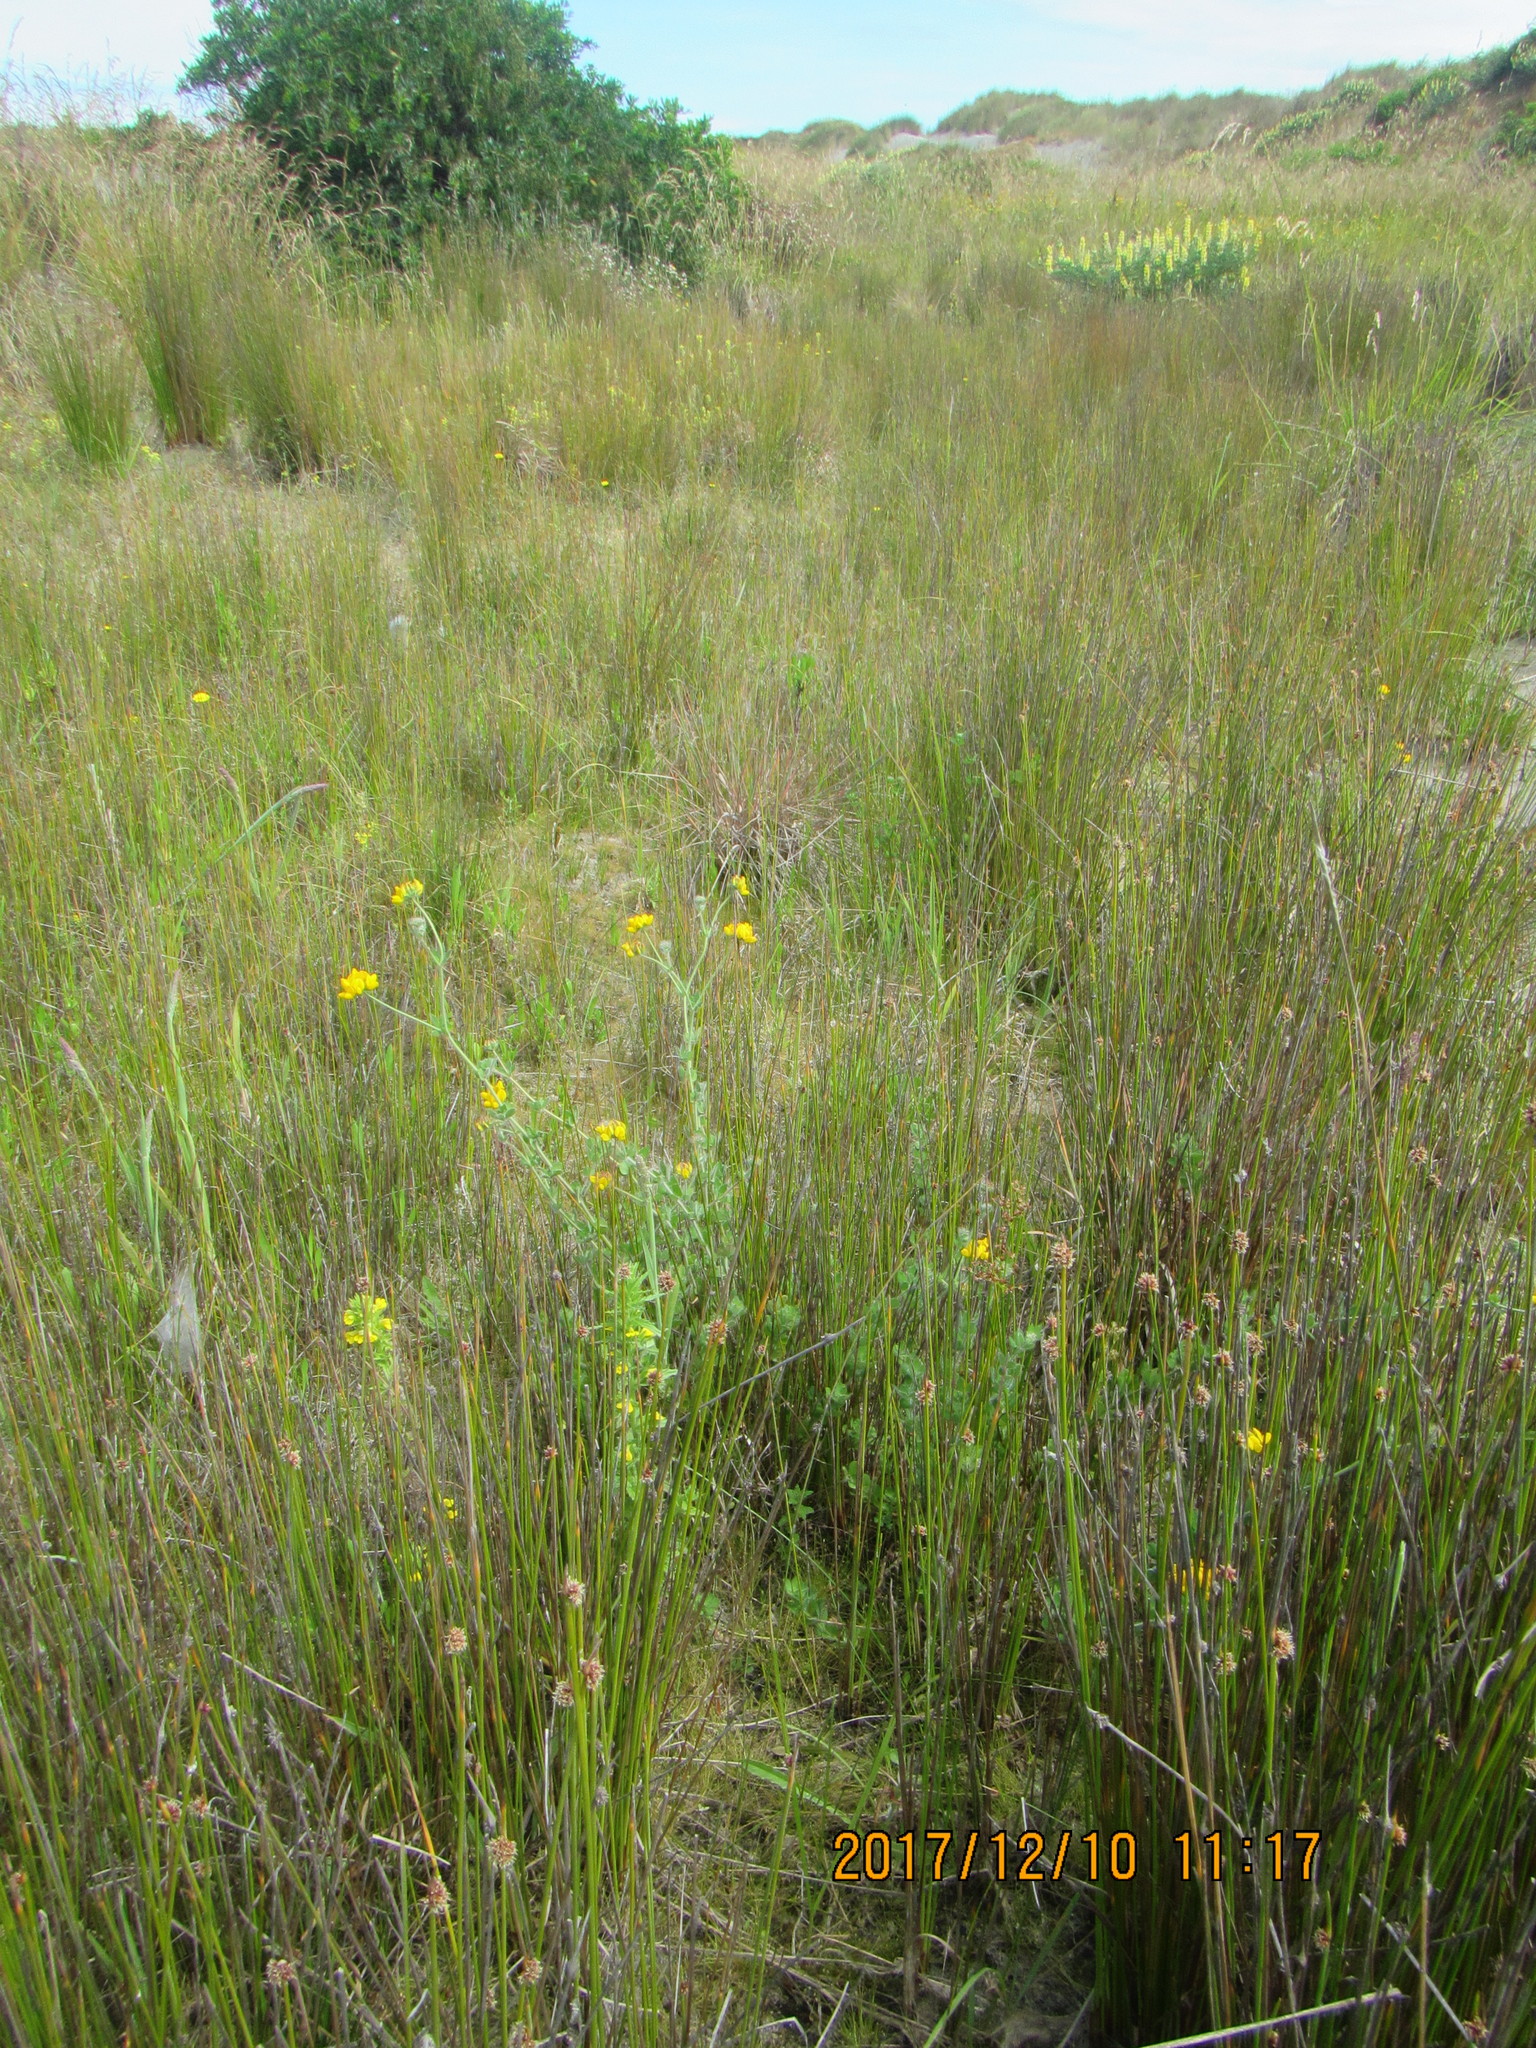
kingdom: Plantae
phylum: Tracheophyta
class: Magnoliopsida
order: Fabales
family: Fabaceae
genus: Lotus
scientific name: Lotus pedunculatus
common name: Greater birdsfoot-trefoil
